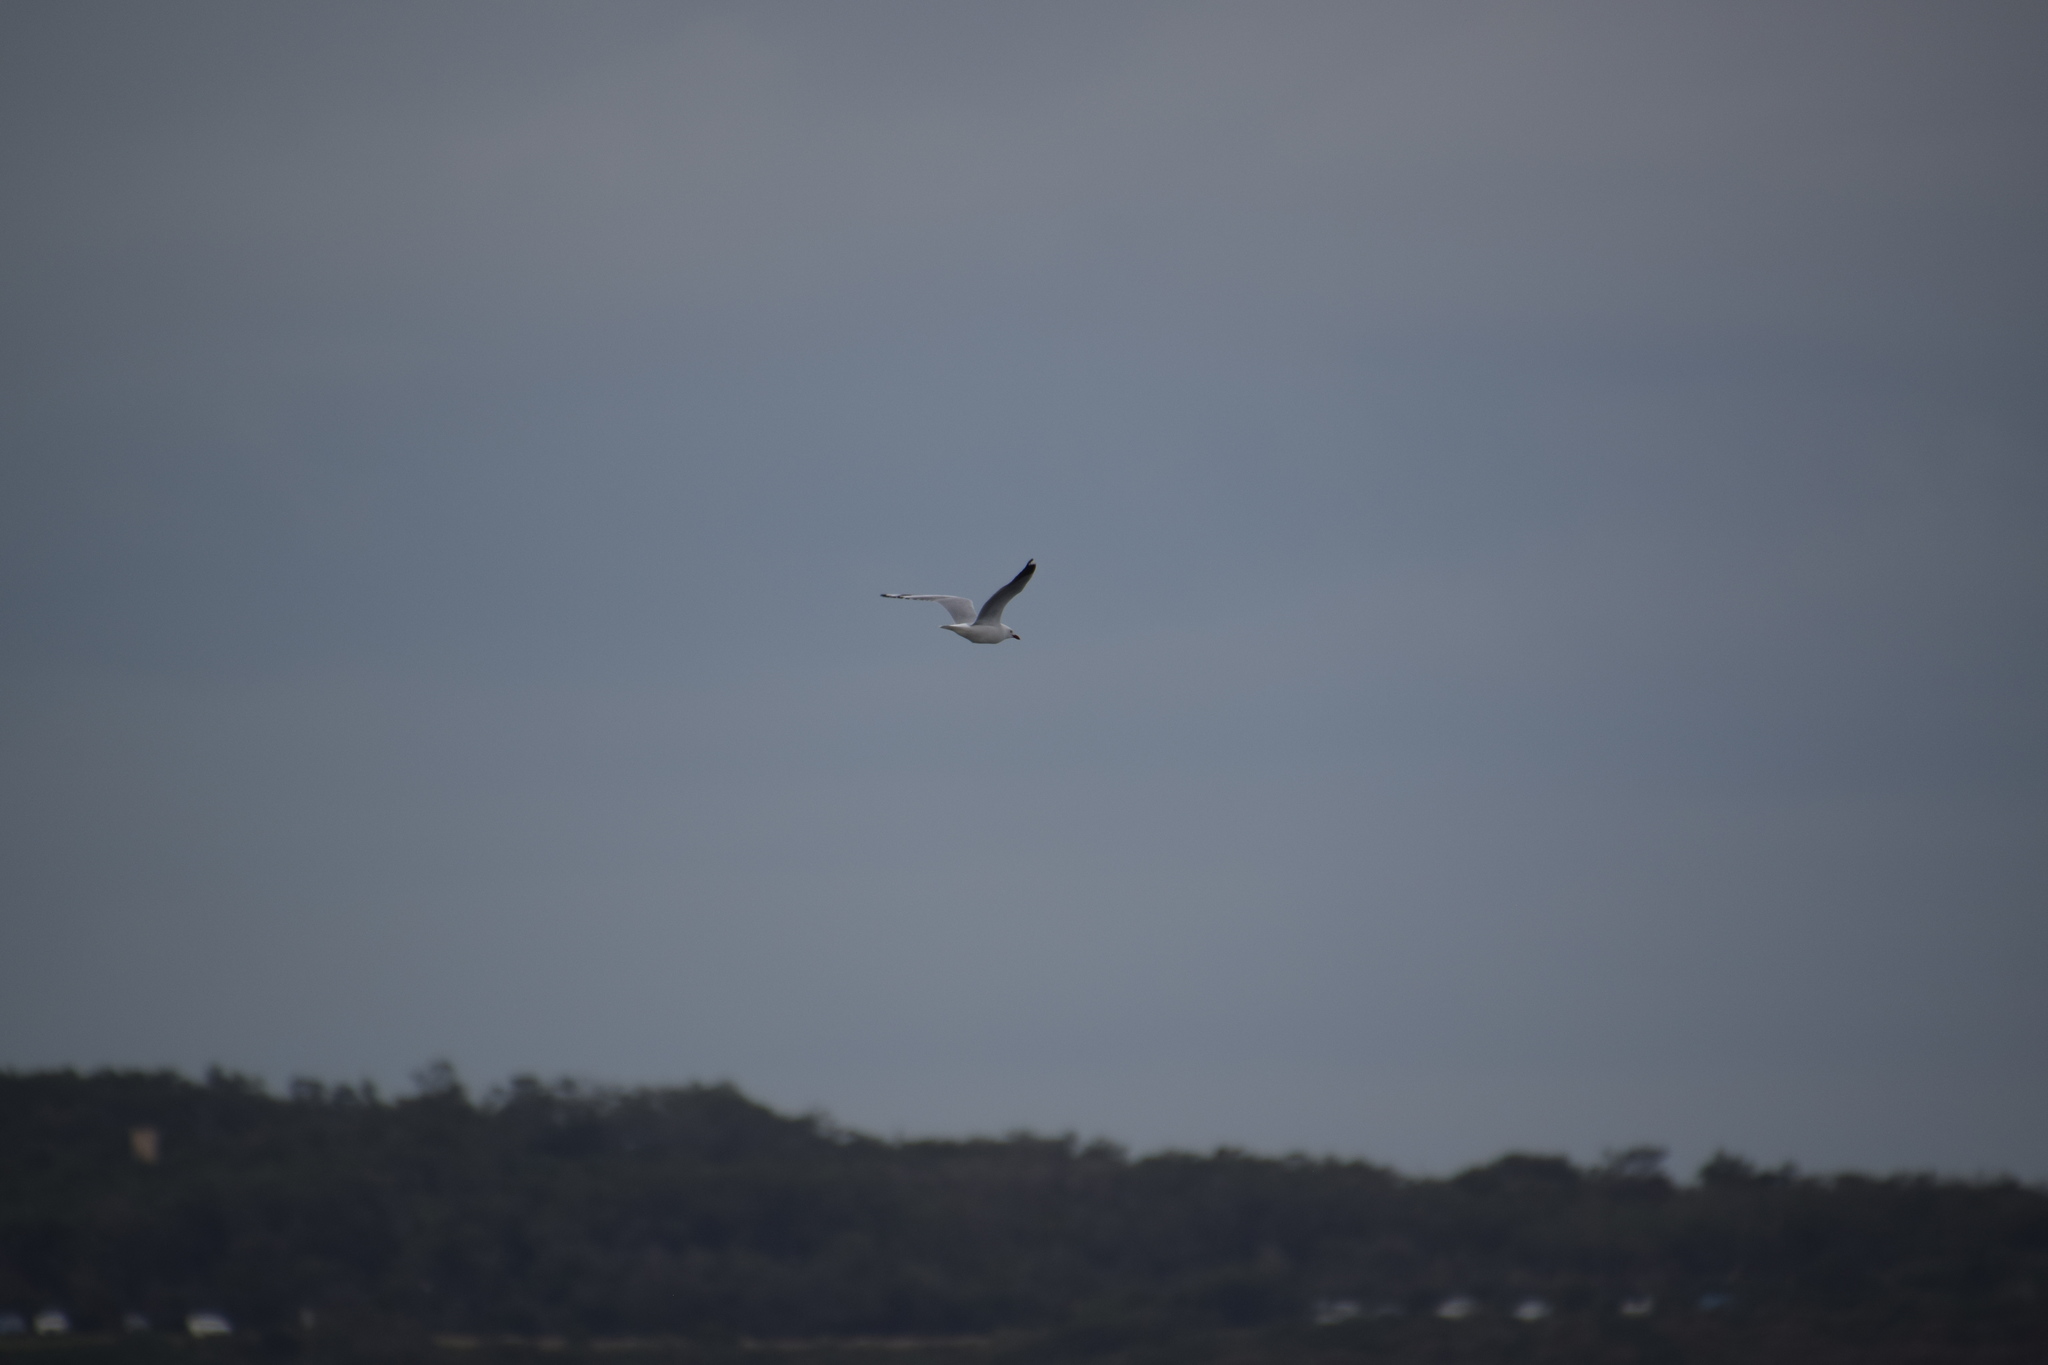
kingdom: Animalia
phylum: Chordata
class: Aves
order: Charadriiformes
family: Laridae
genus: Chroicocephalus
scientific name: Chroicocephalus novaehollandiae
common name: Silver gull
